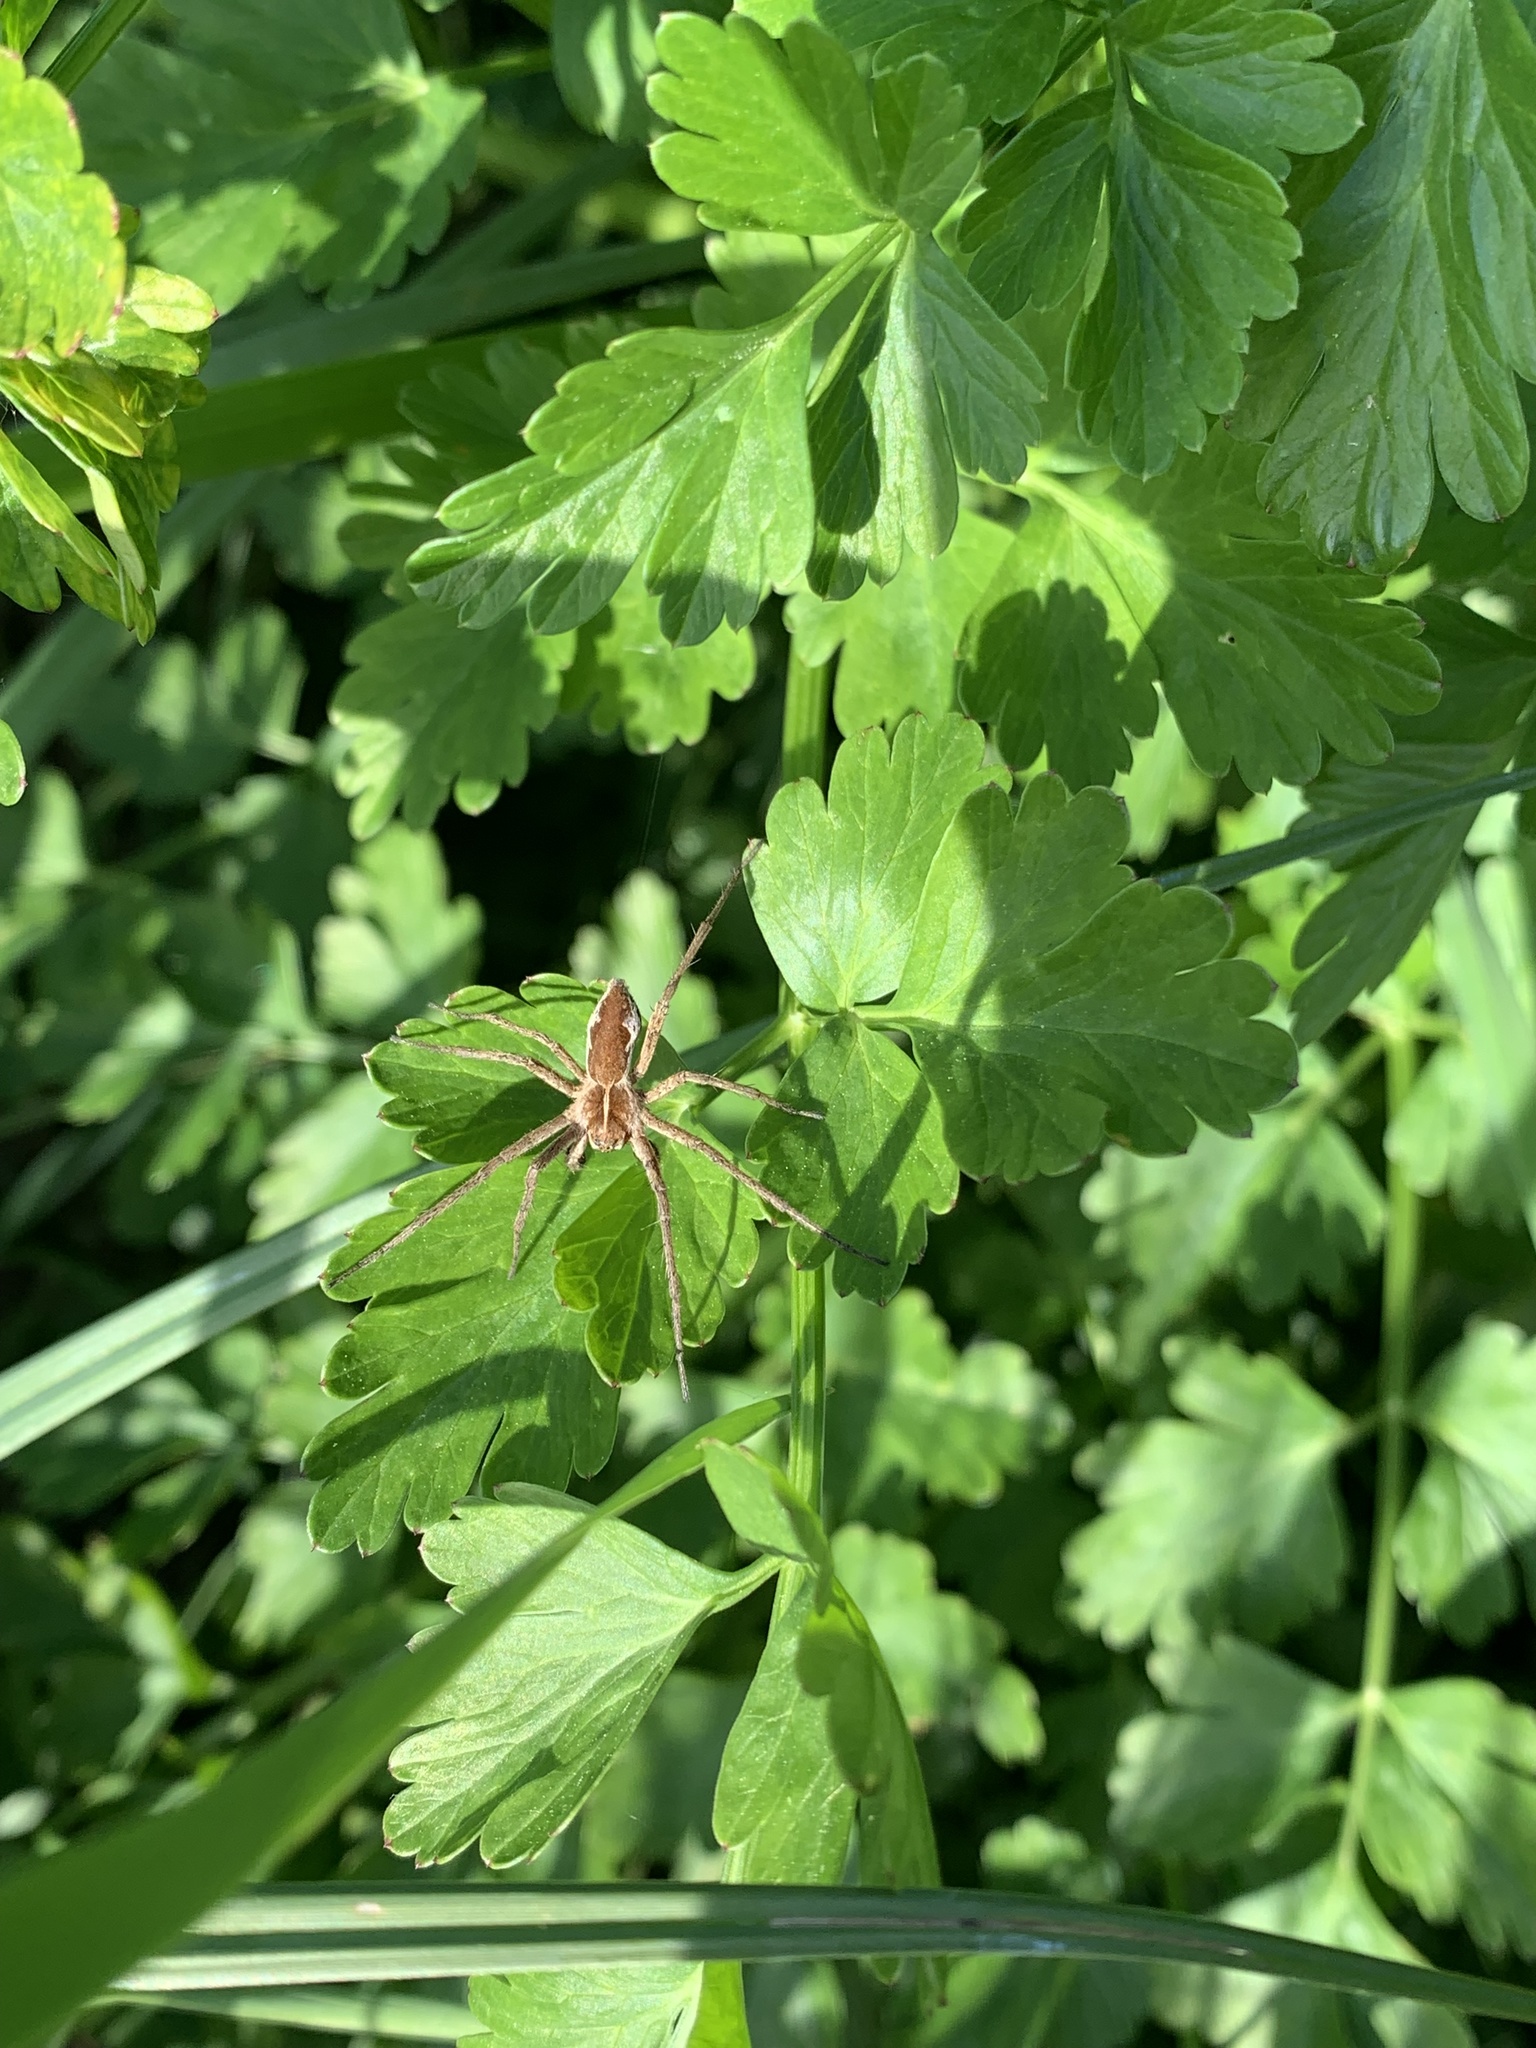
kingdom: Animalia
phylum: Arthropoda
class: Arachnida
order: Araneae
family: Pisauridae
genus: Pisaura
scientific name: Pisaura mirabilis
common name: Tent spider
